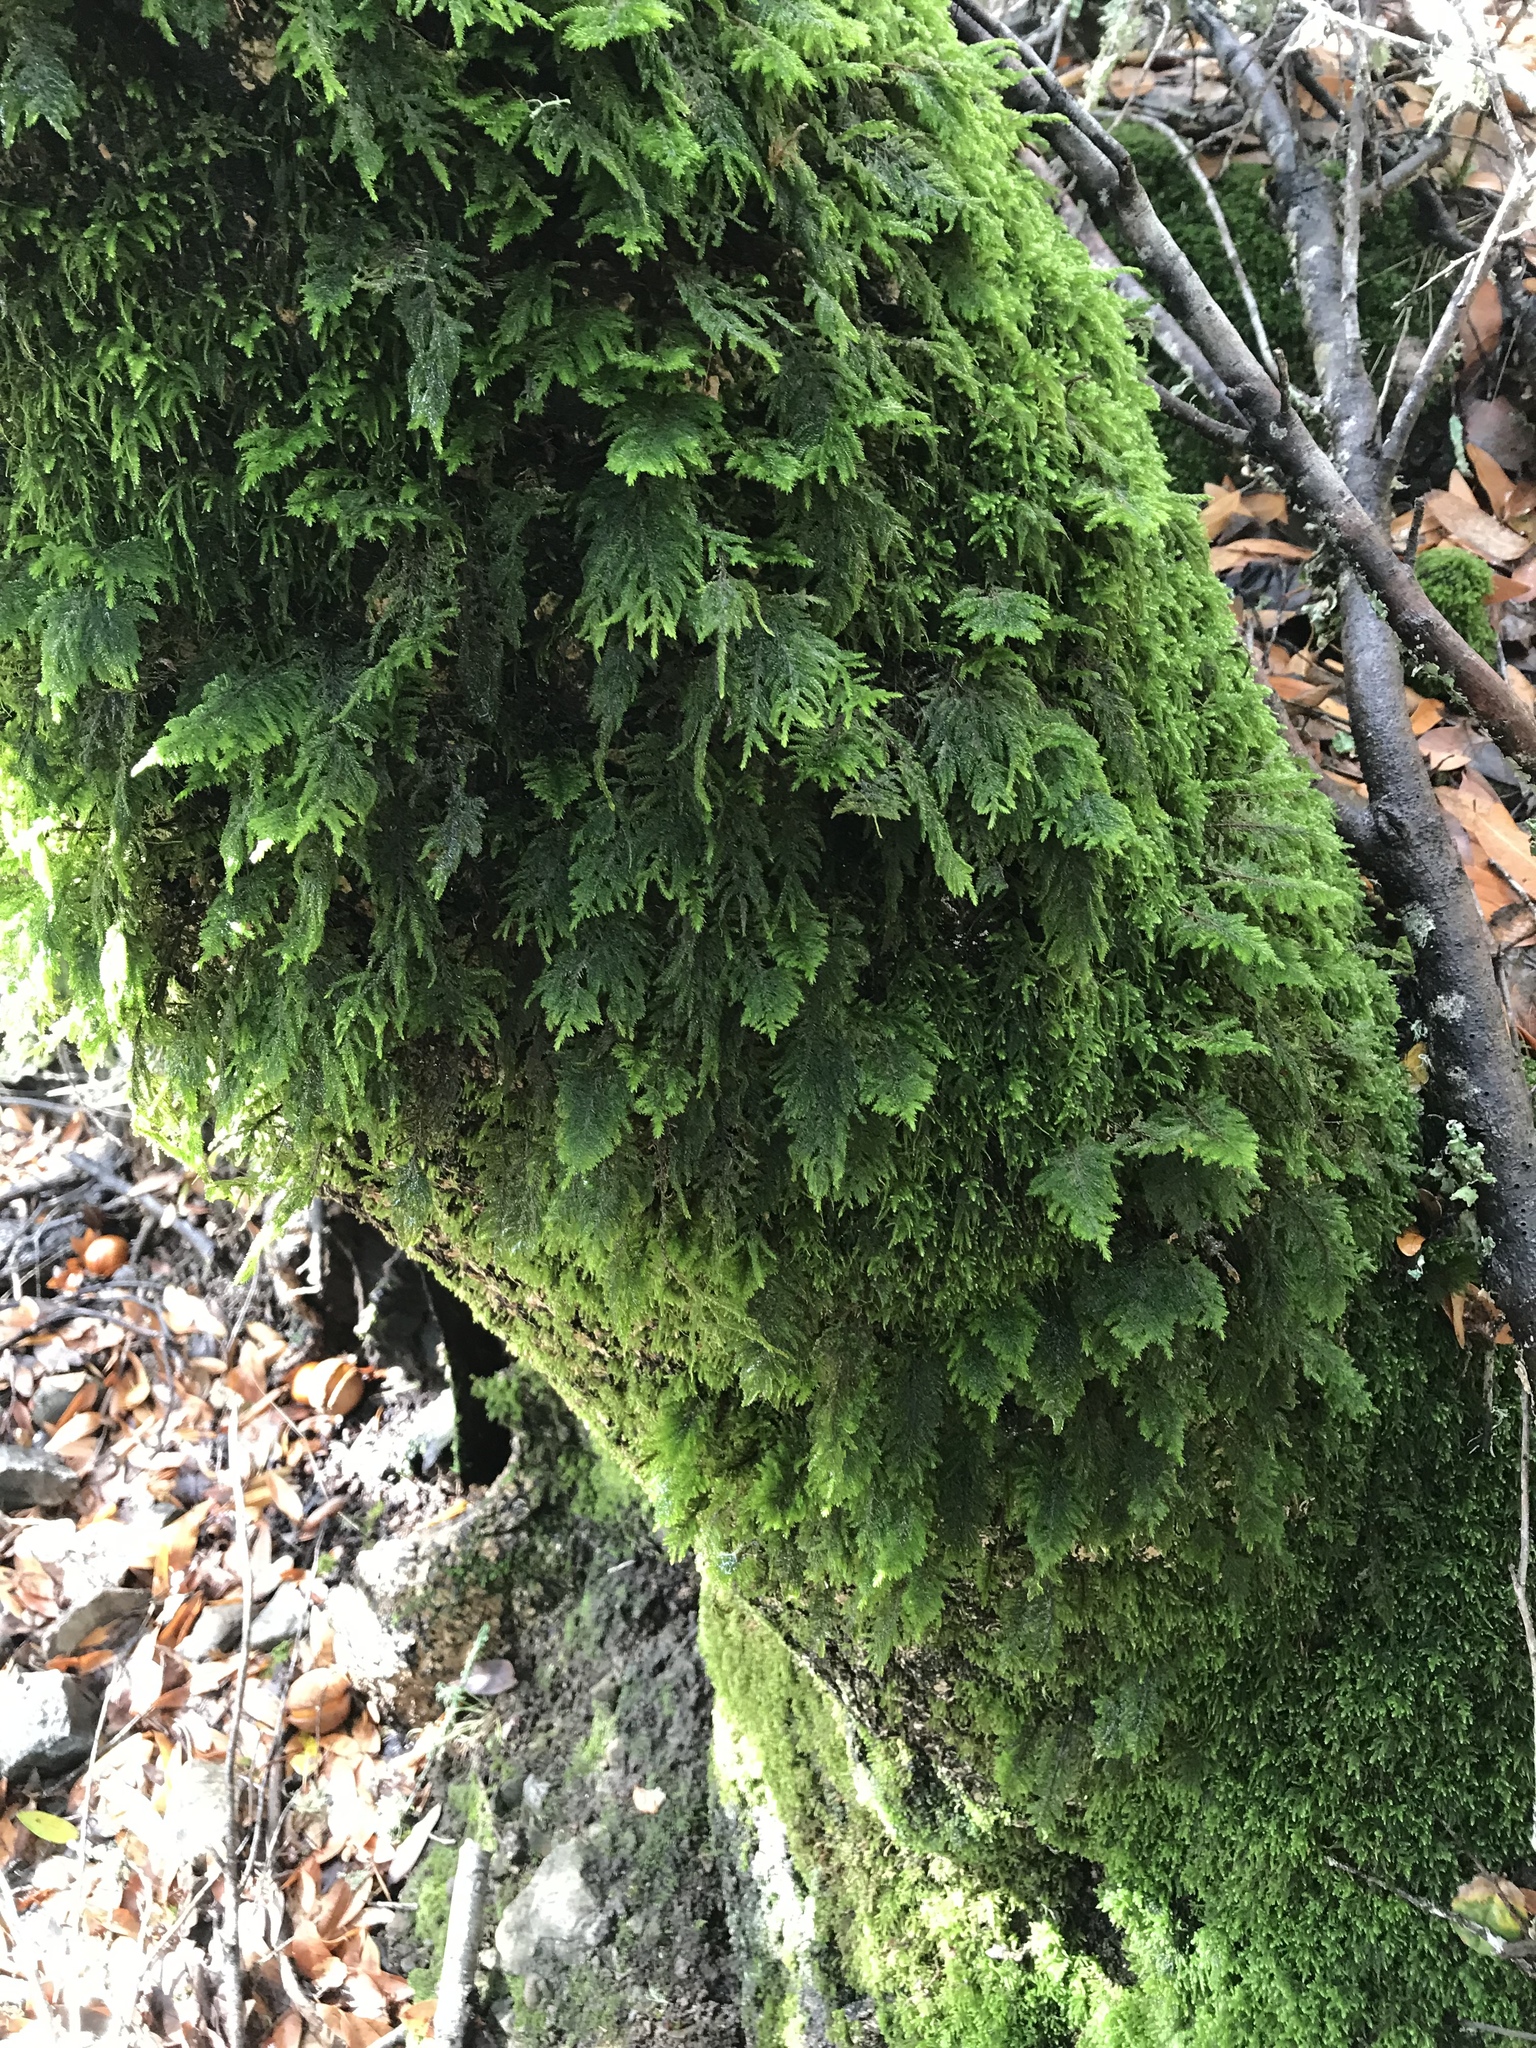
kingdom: Plantae
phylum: Bryophyta
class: Bryopsida
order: Hypnales
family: Cryphaeaceae
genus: Dendroalsia
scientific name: Dendroalsia abietina
